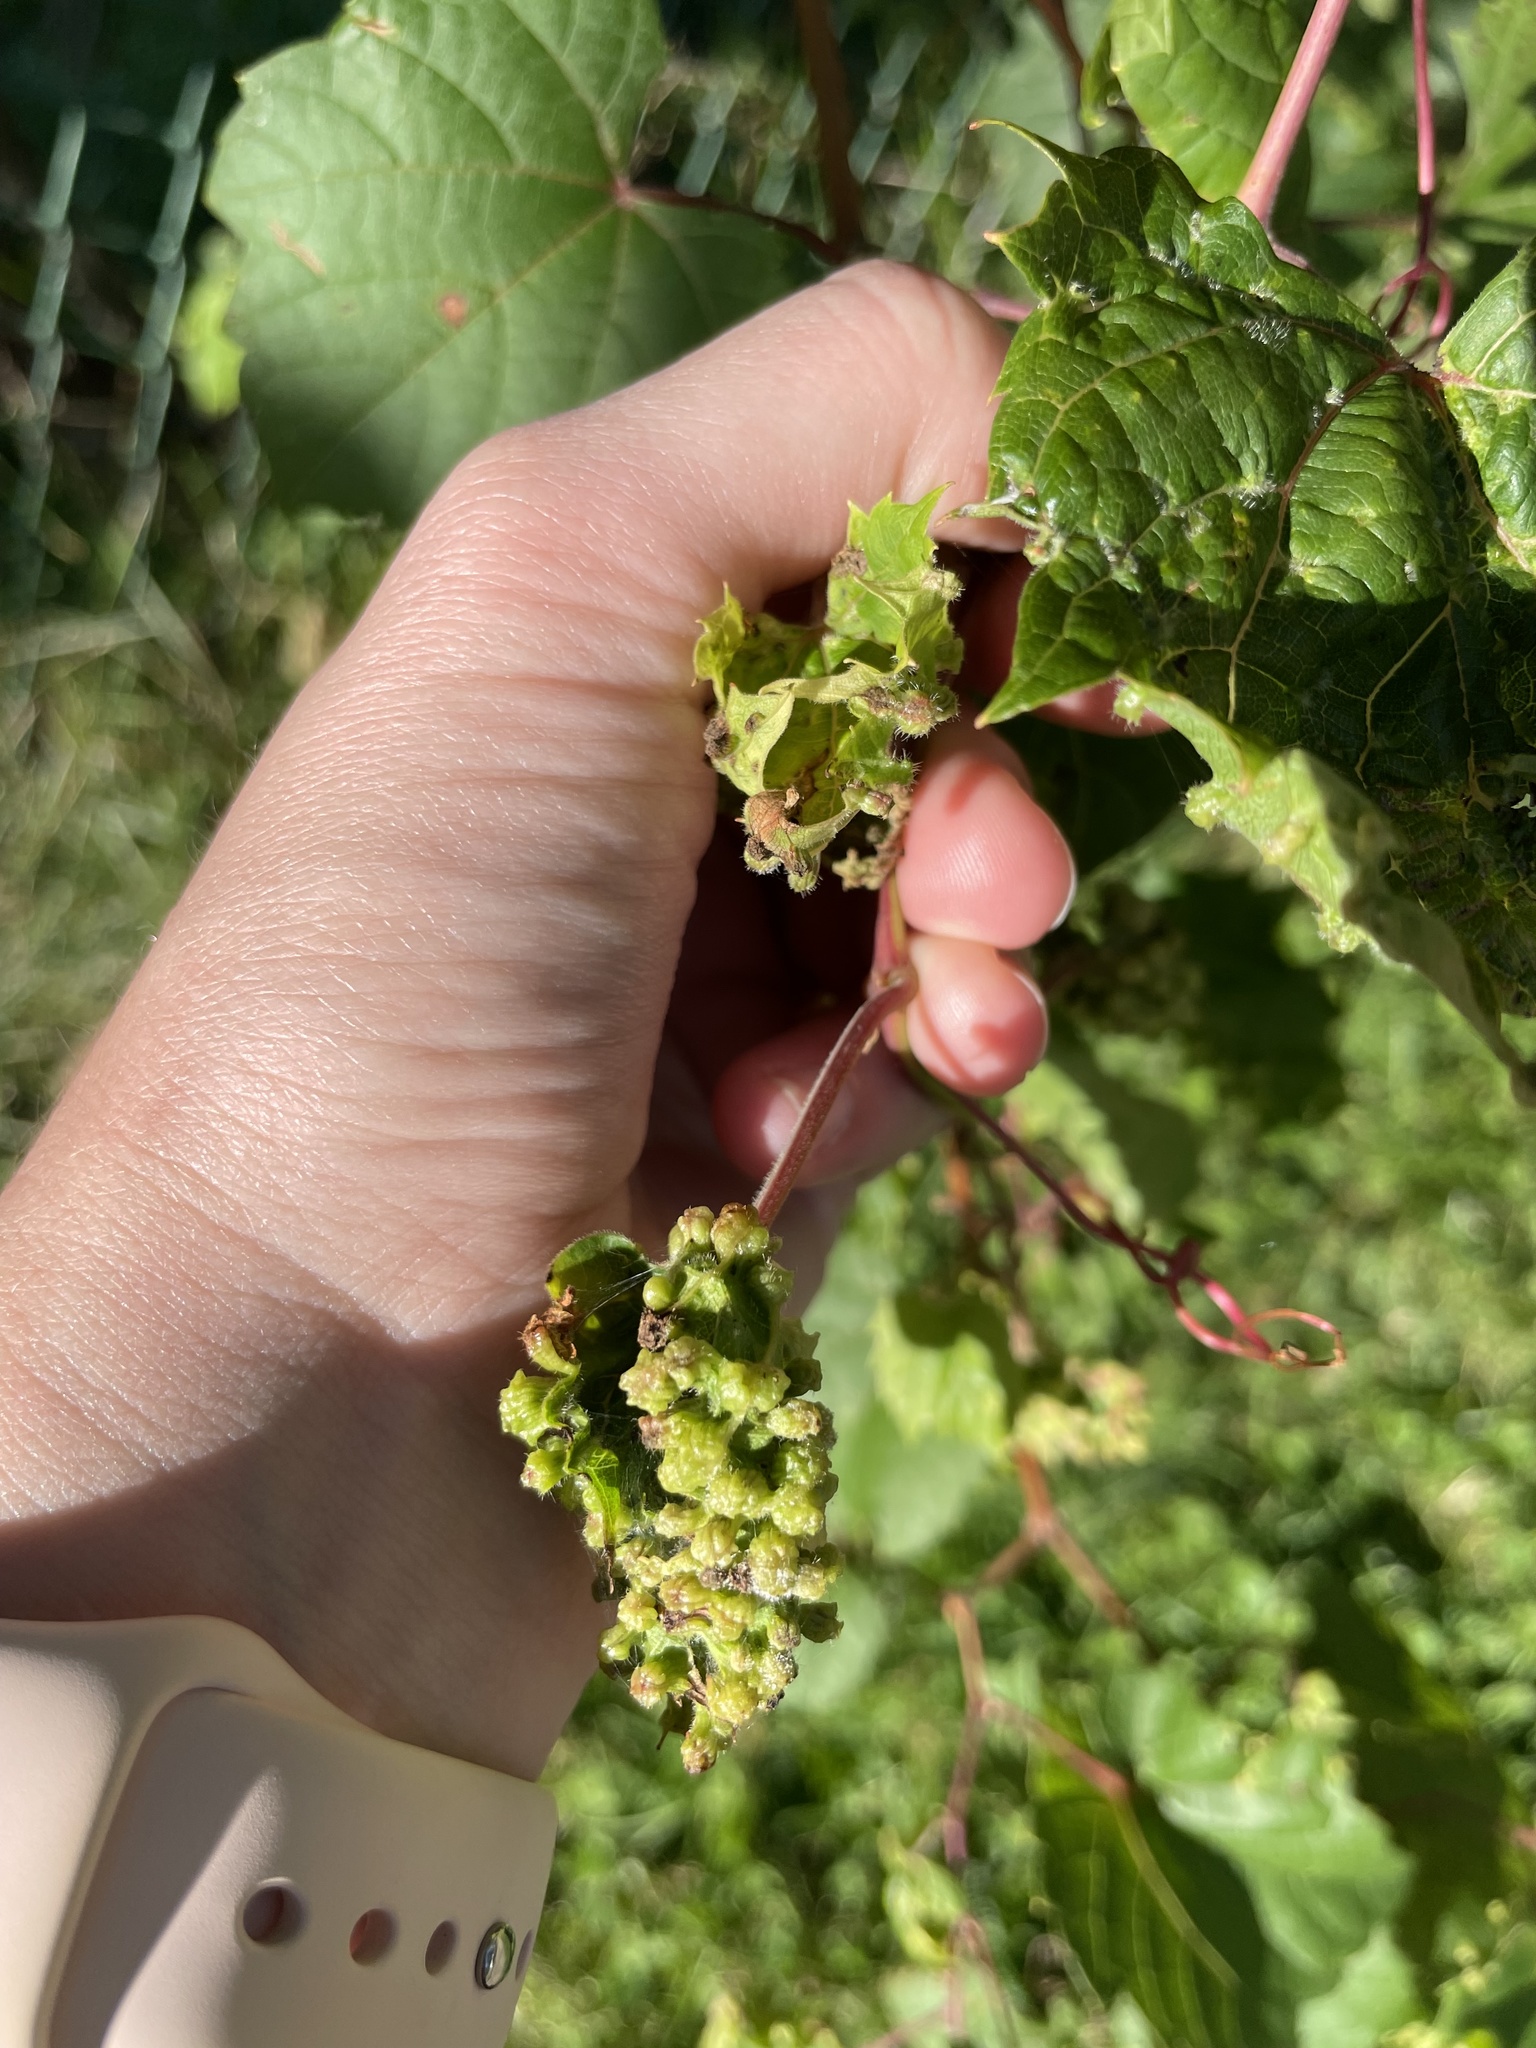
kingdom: Animalia
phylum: Arthropoda
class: Insecta
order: Hemiptera
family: Phylloxeridae
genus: Daktulosphaira
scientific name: Daktulosphaira vitifoliae
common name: Grape phylloxera
